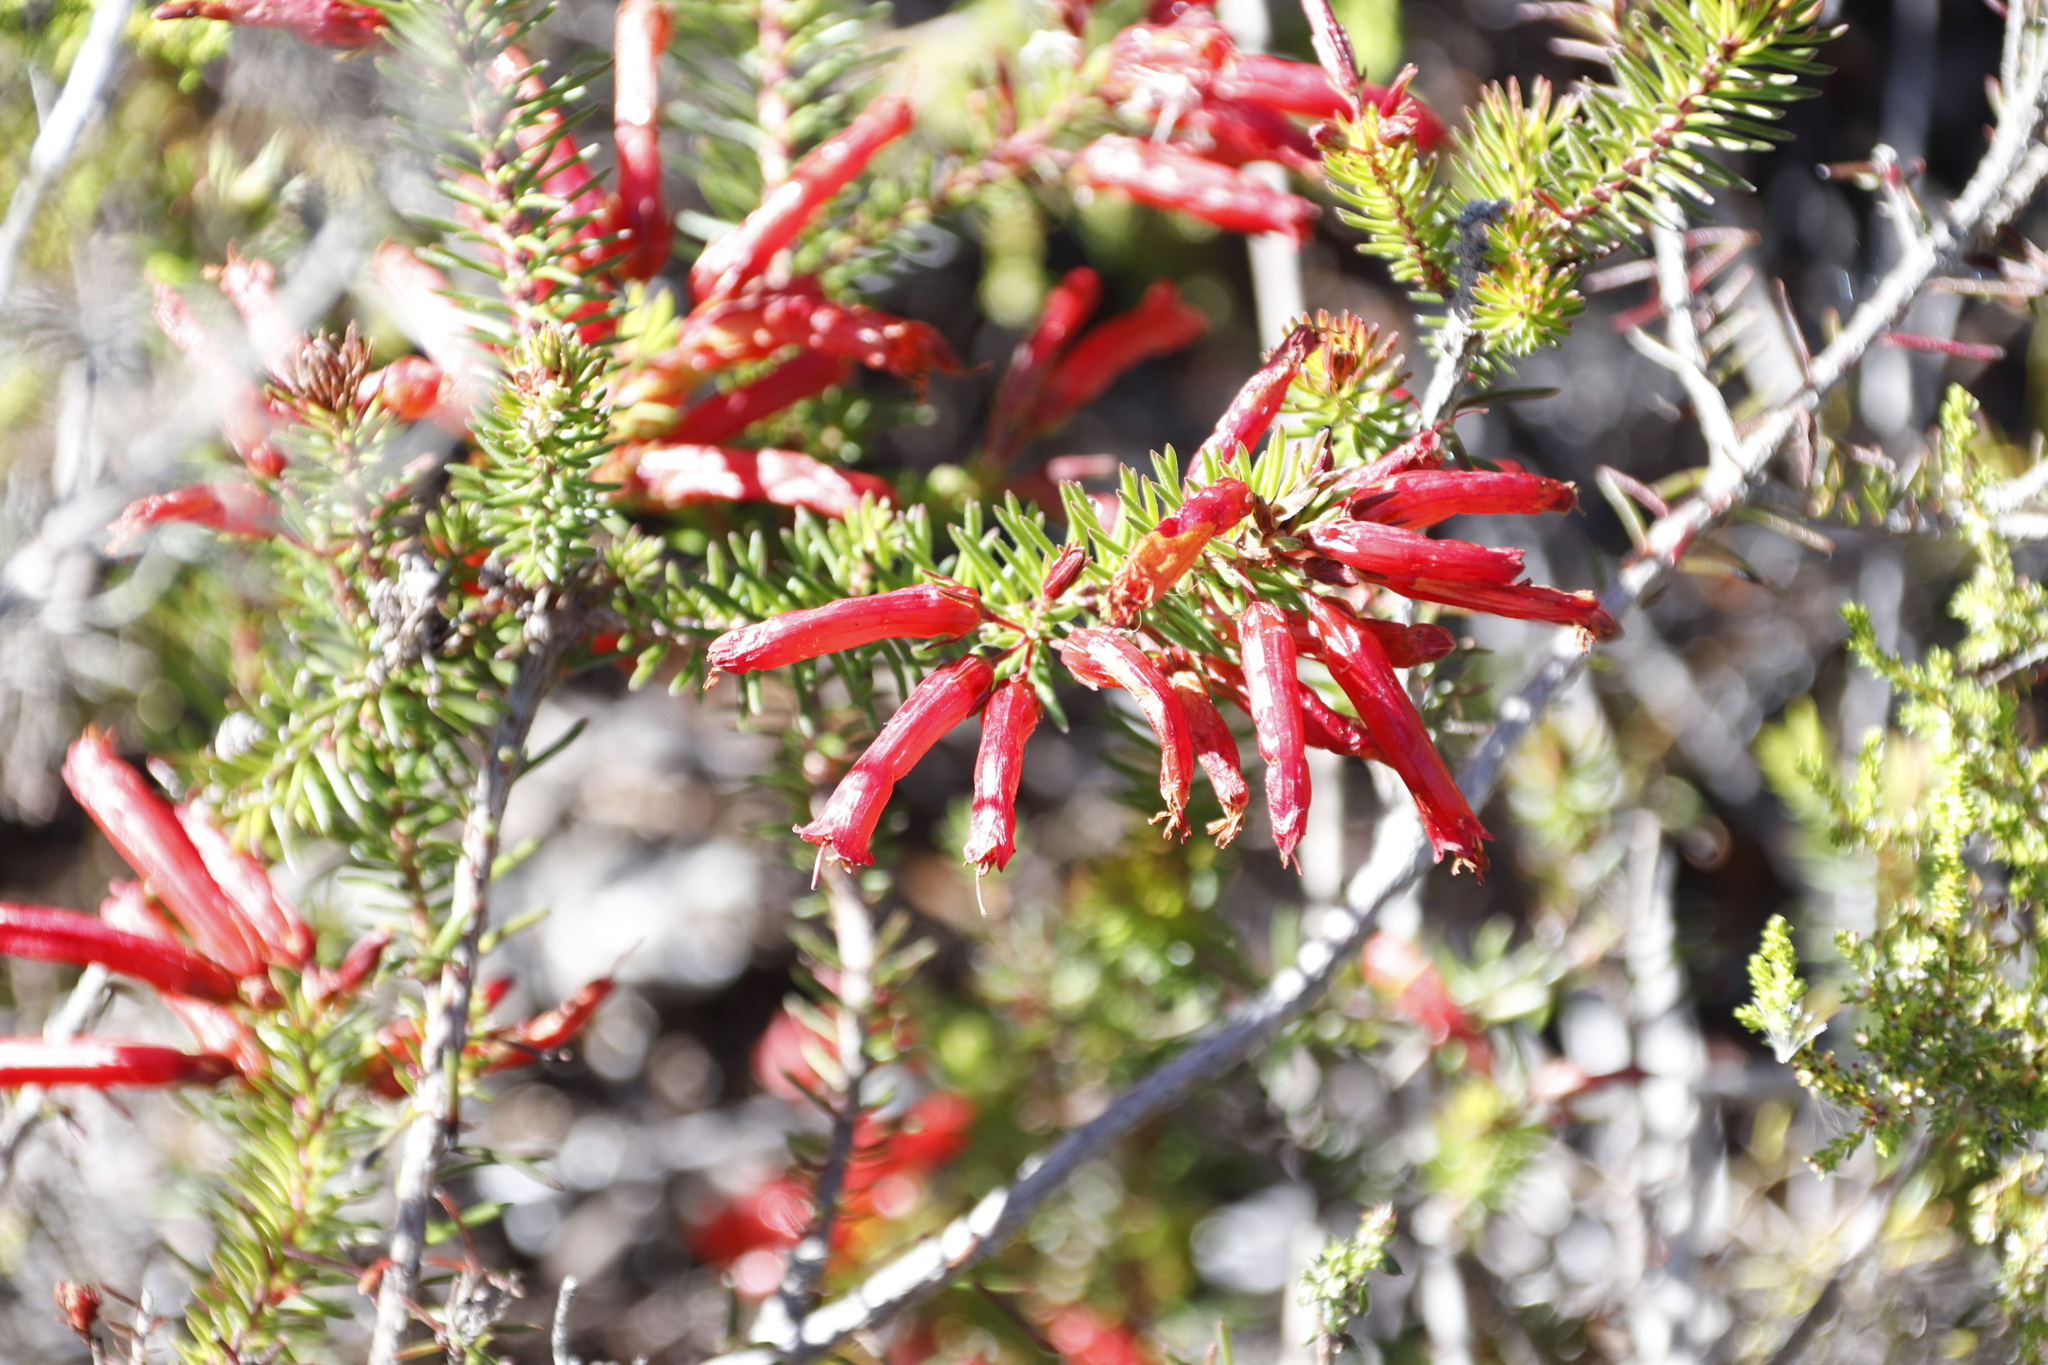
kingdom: Plantae
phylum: Tracheophyta
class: Magnoliopsida
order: Ericales
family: Ericaceae
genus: Erica
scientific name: Erica nevillei
